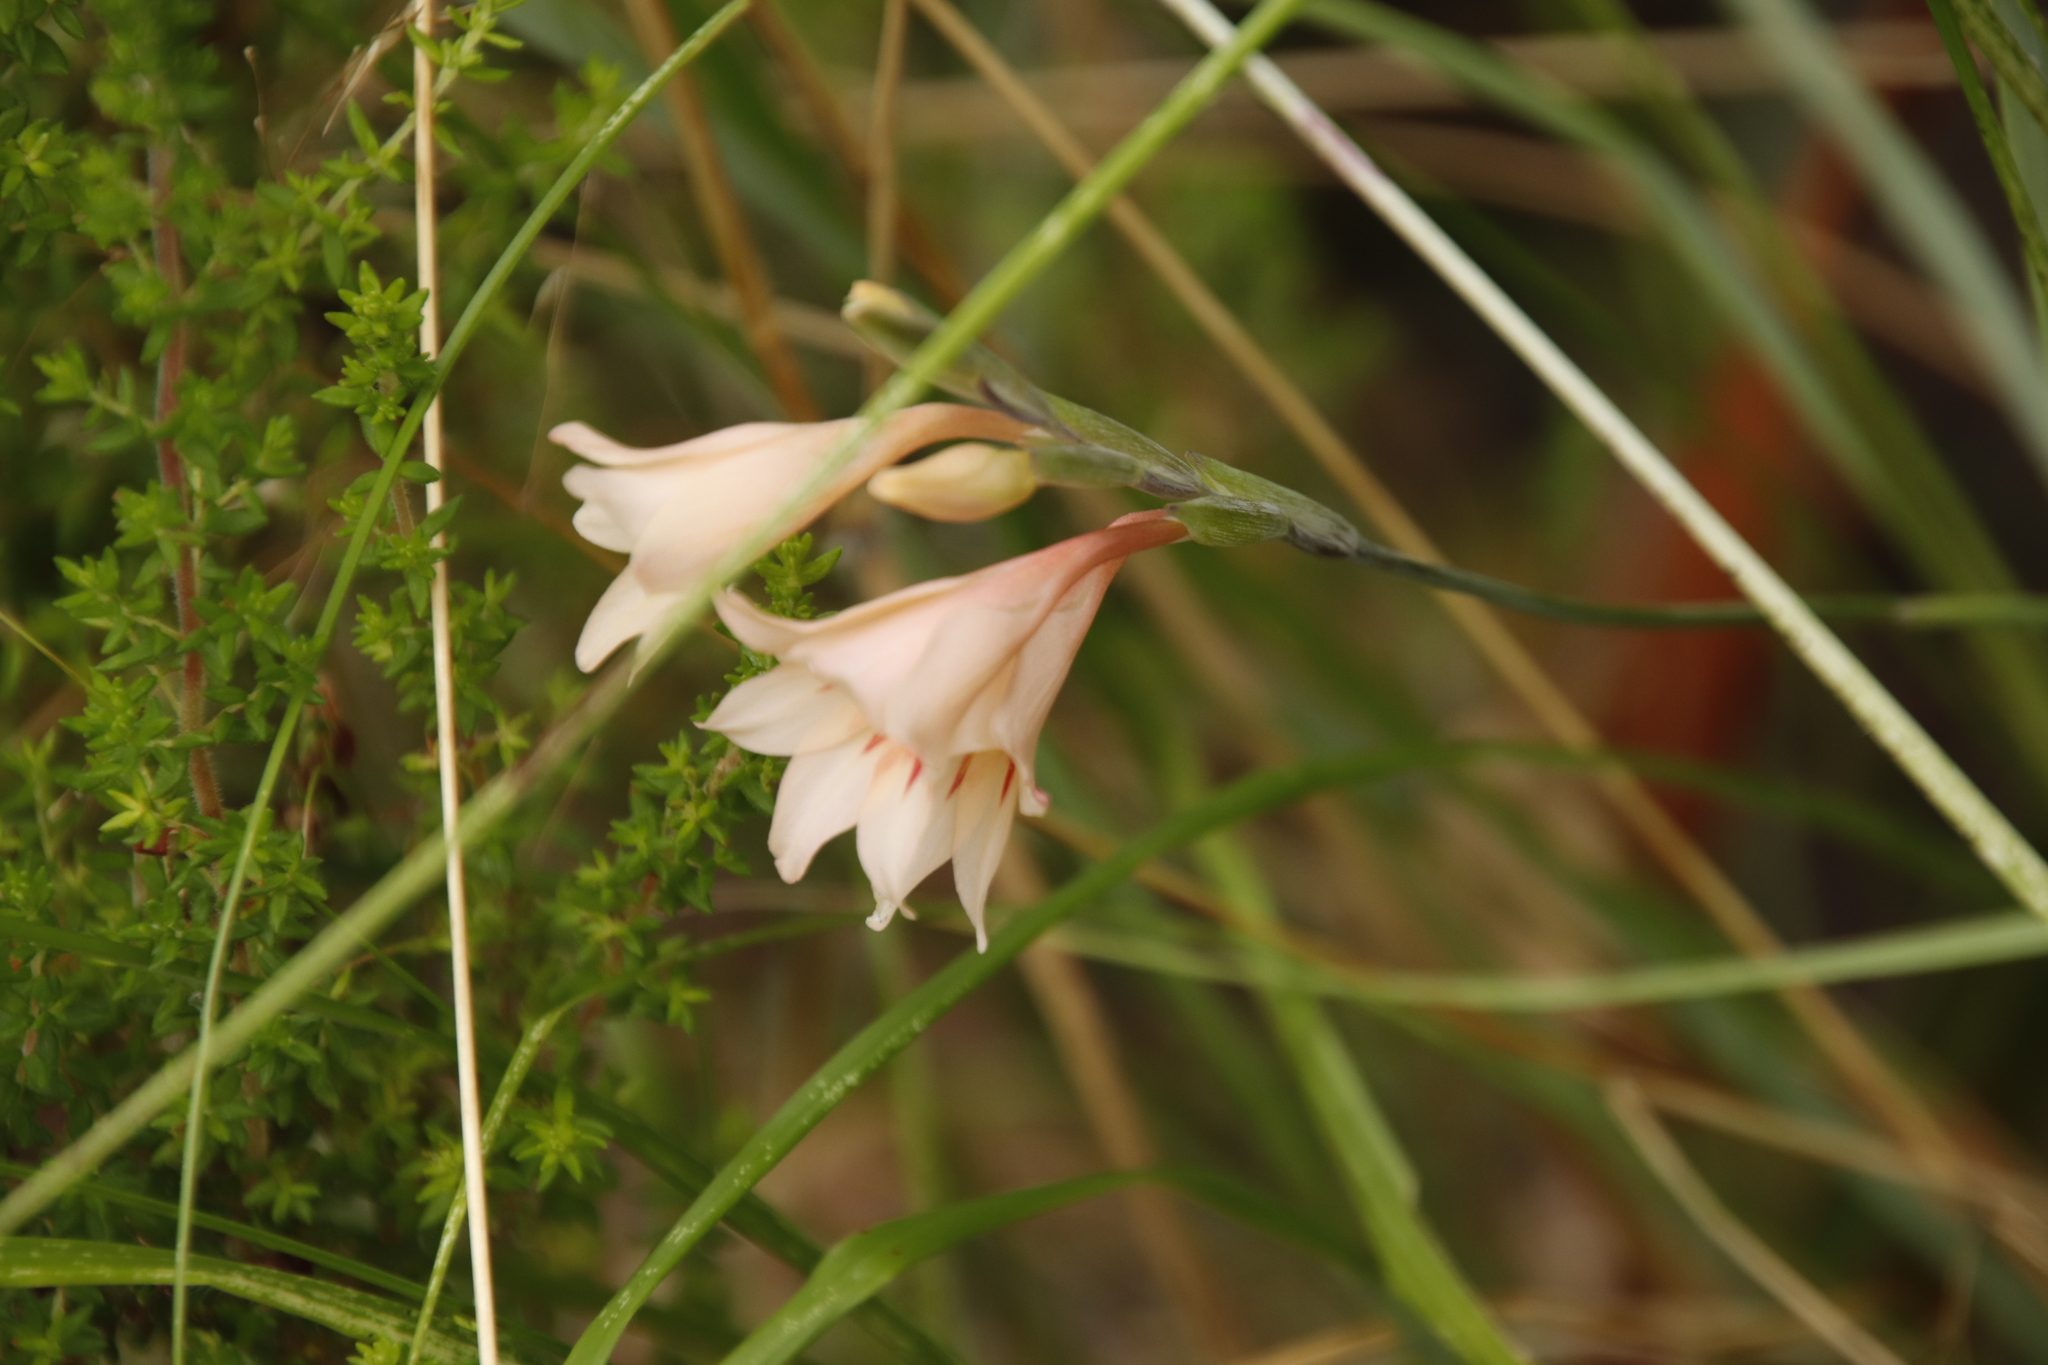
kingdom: Plantae
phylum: Tracheophyta
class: Liliopsida
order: Asparagales
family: Iridaceae
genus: Gladiolus
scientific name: Gladiolus monticola
